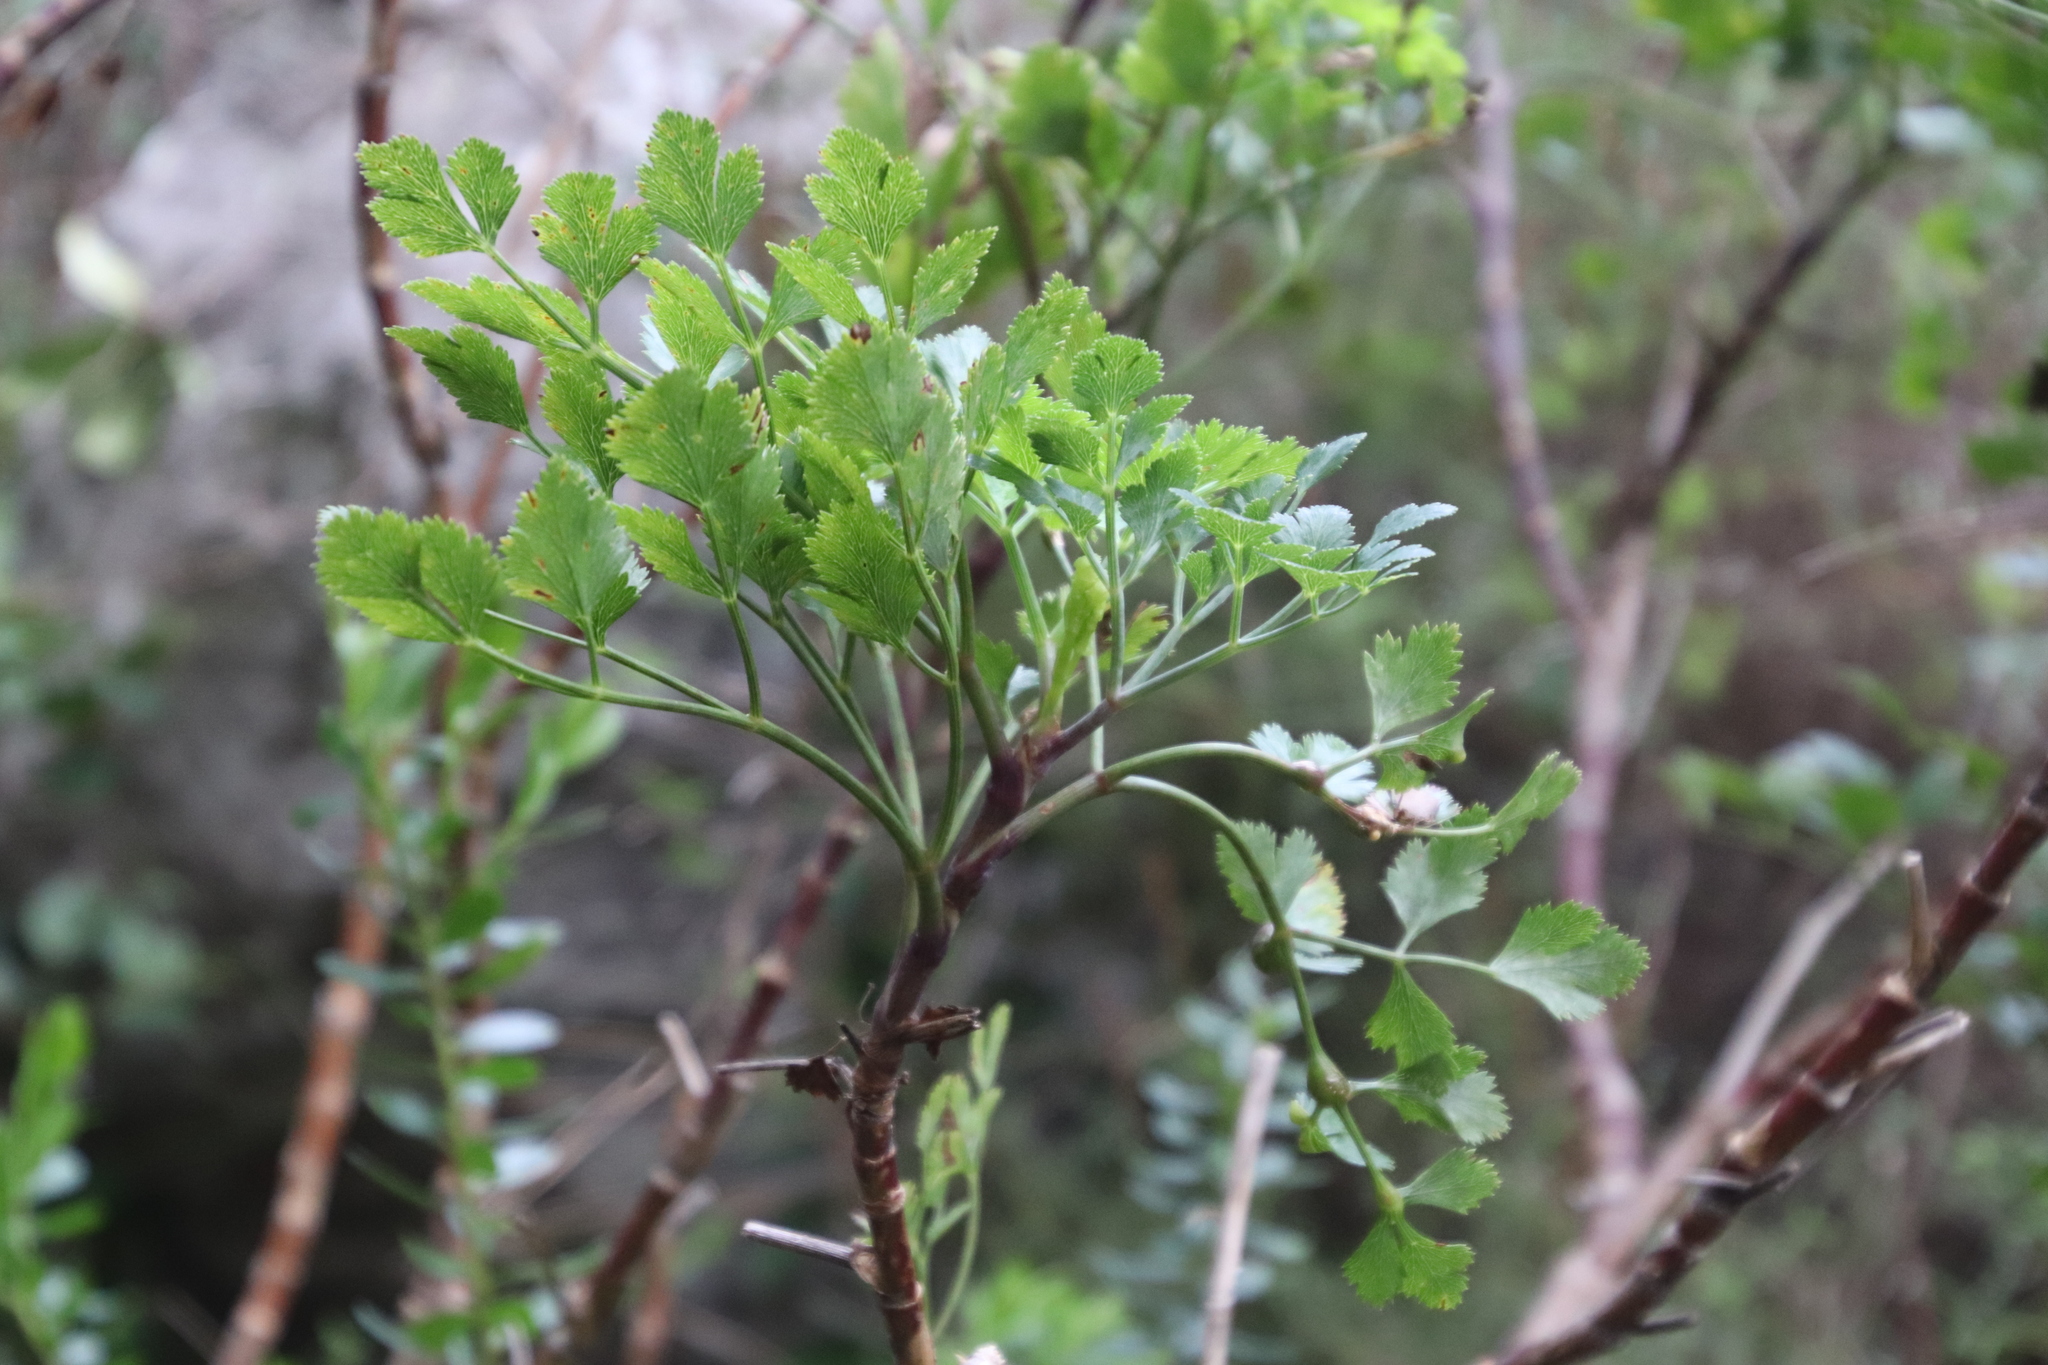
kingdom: Plantae
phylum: Tracheophyta
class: Magnoliopsida
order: Apiales
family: Apiaceae
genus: Notobubon
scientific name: Notobubon galbanum
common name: Blisterbush
